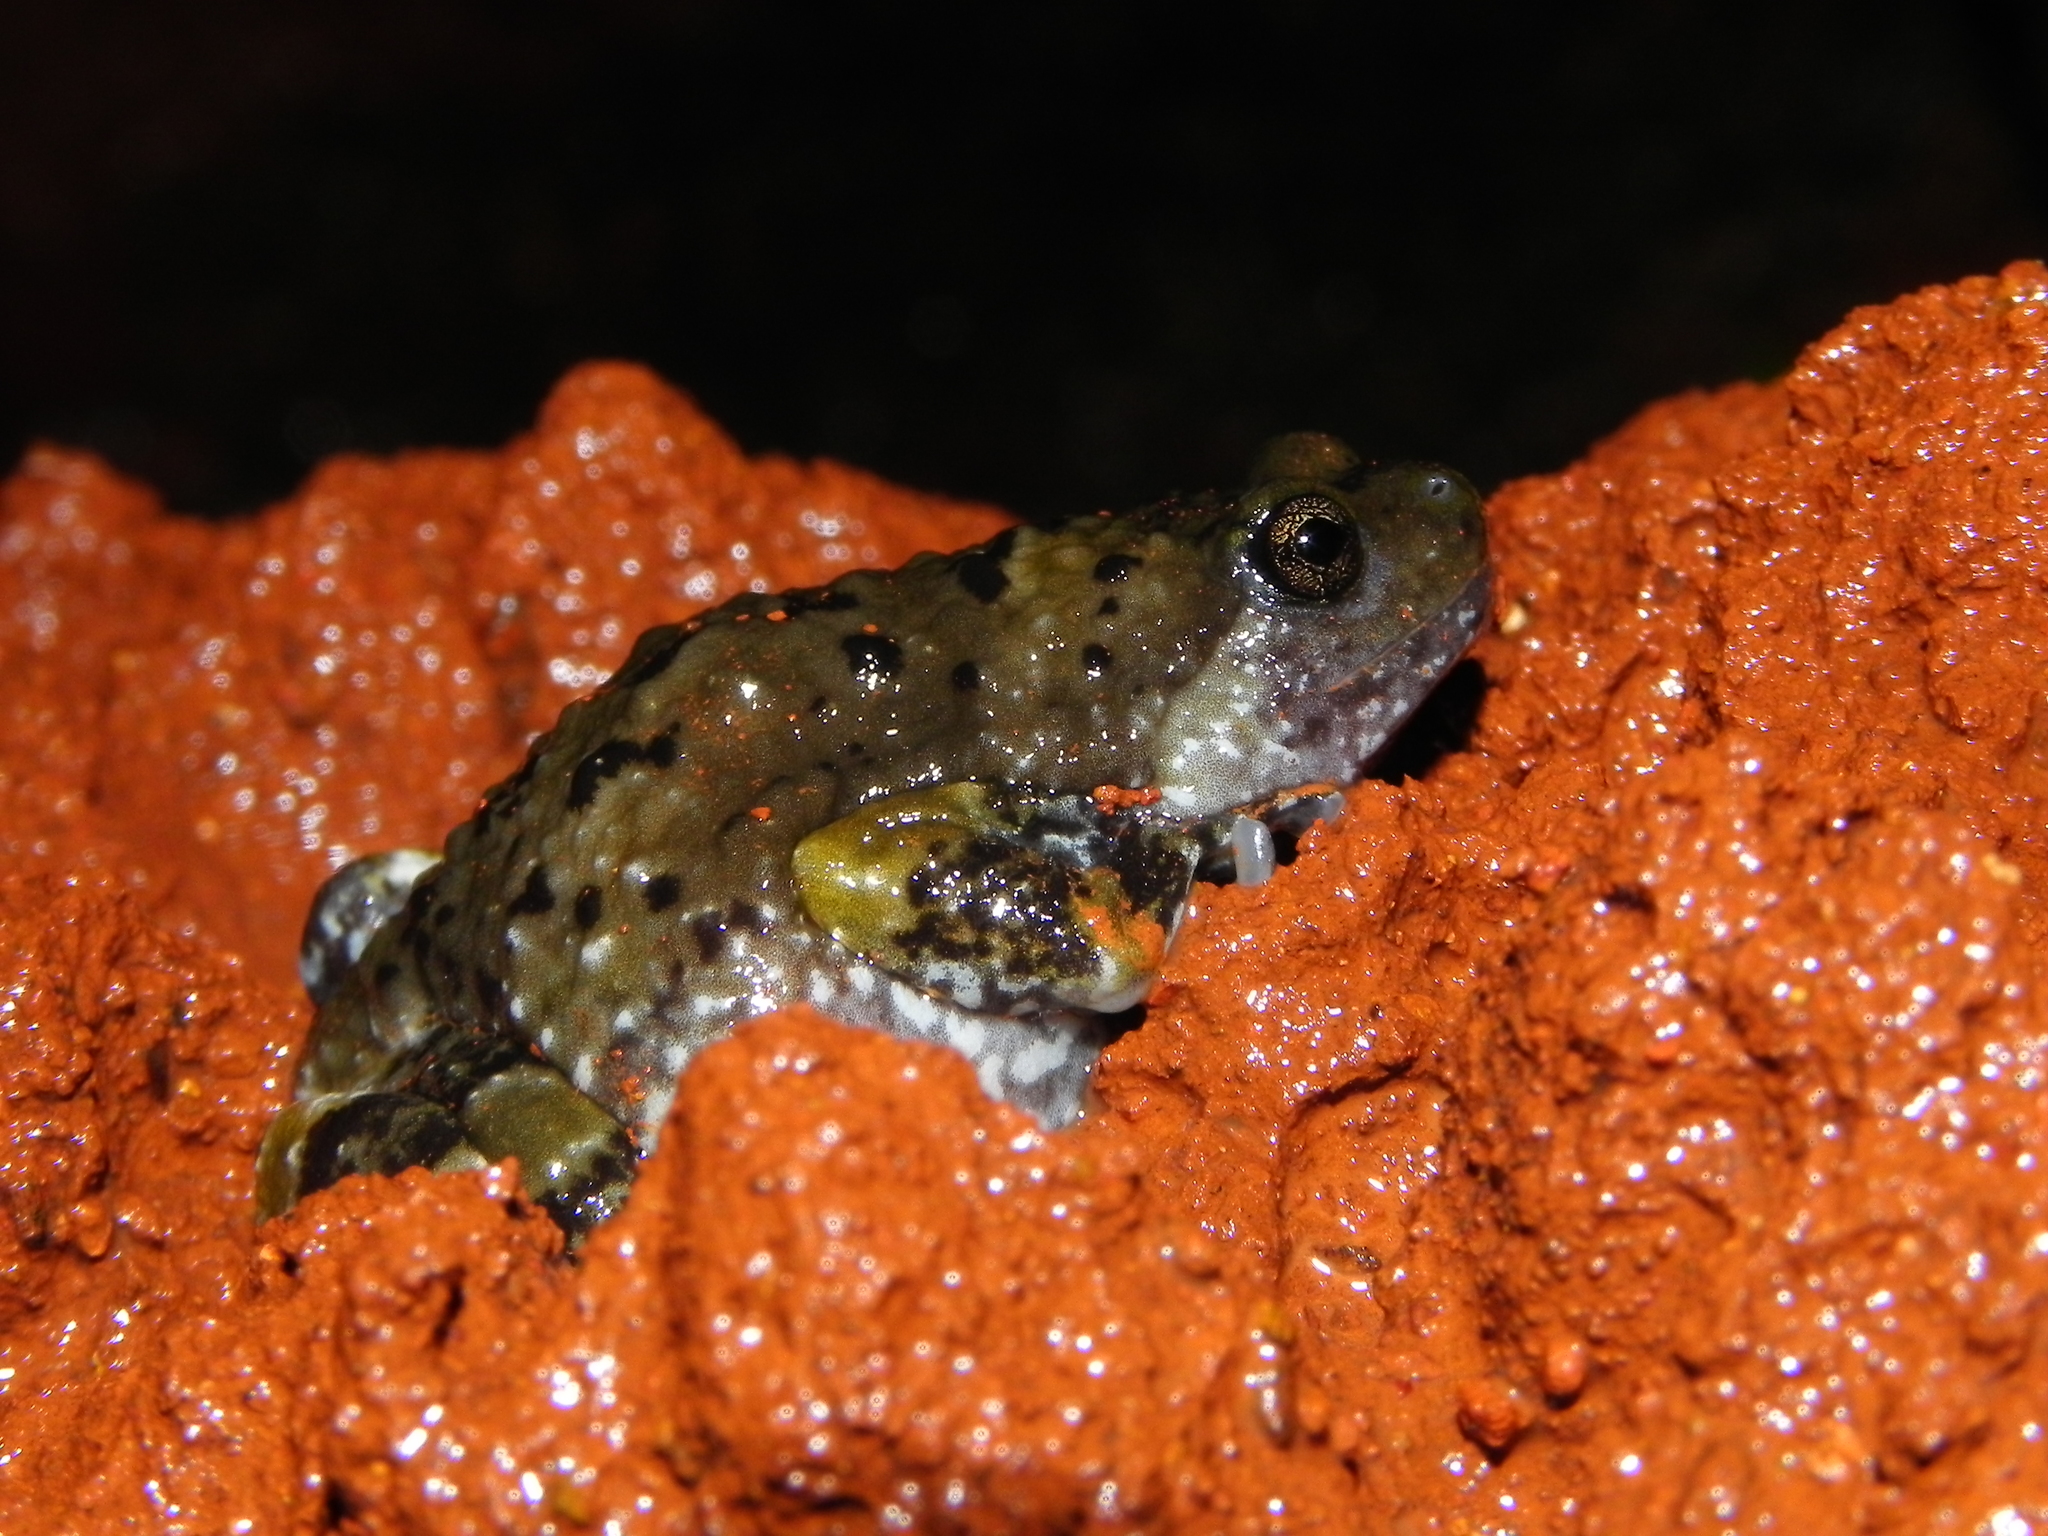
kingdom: Animalia
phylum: Chordata
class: Amphibia
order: Anura
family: Microhylidae
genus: Uperodon
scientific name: Uperodon mormoratus
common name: Indian dot frog
